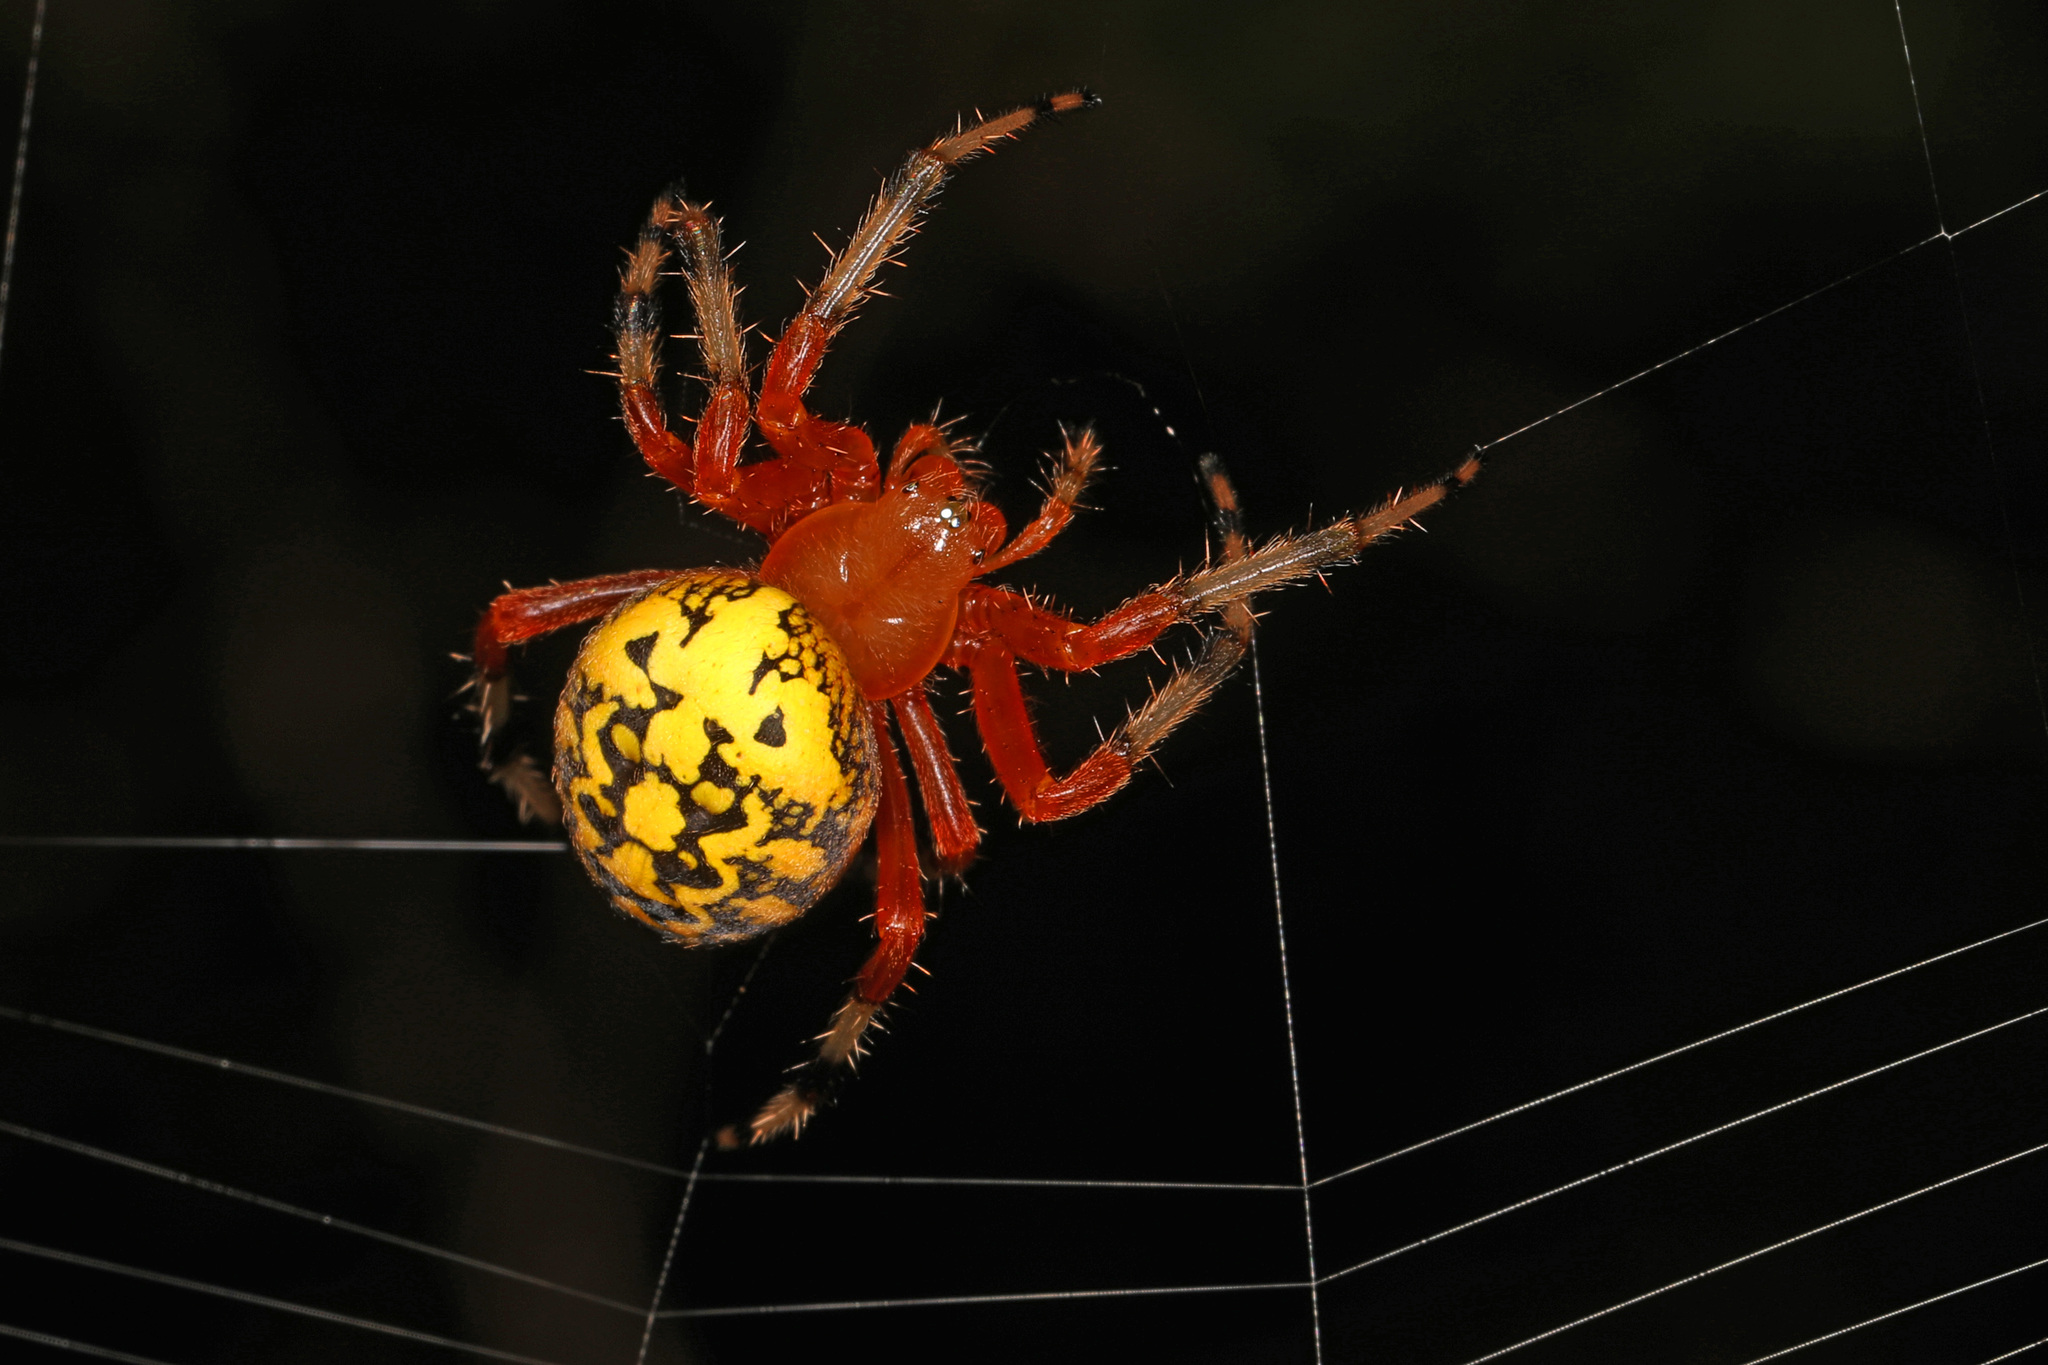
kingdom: Animalia
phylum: Arthropoda
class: Arachnida
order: Araneae
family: Araneidae
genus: Araneus
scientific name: Araneus marmoreus
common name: Marbled orbweaver
